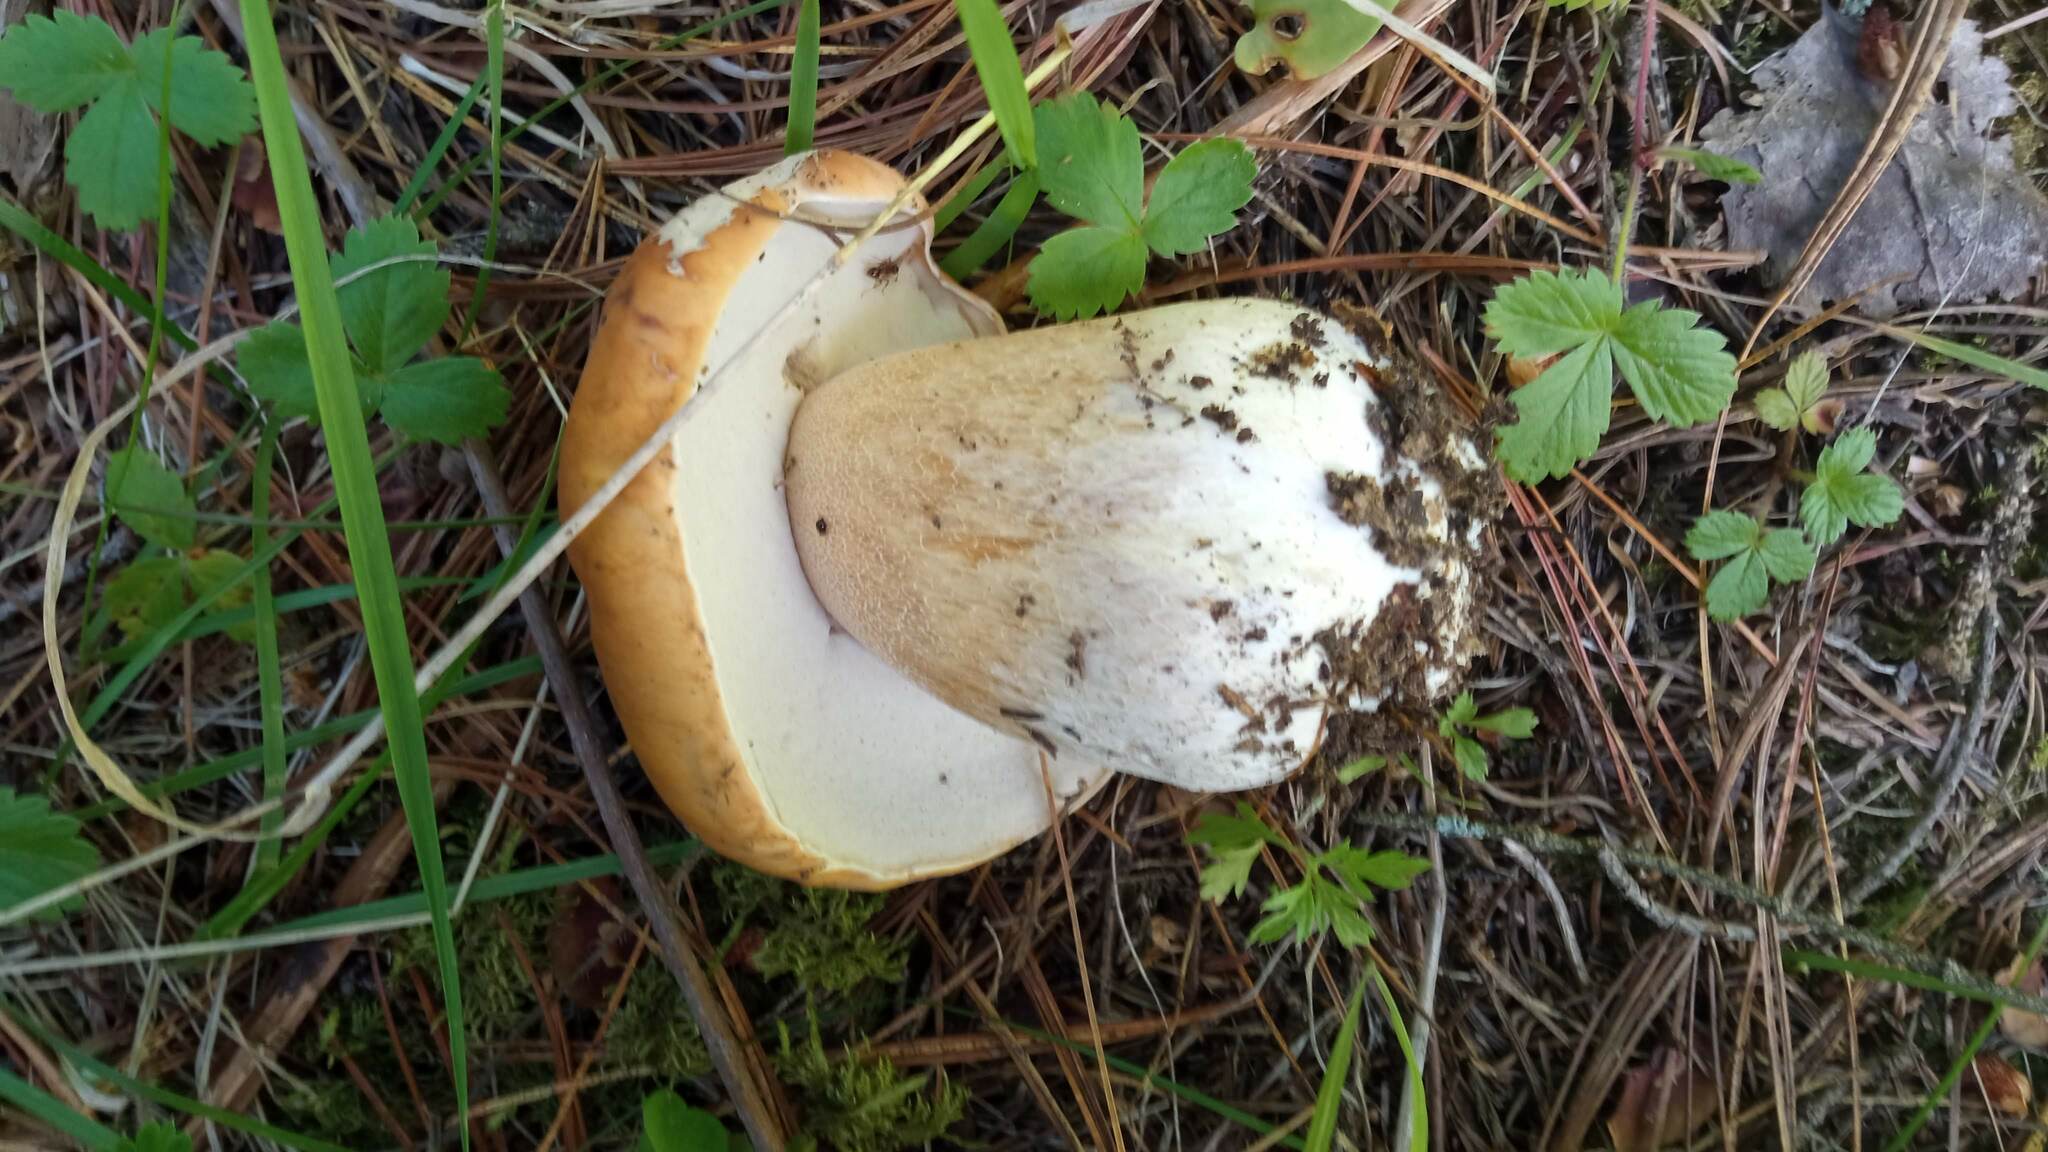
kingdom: Fungi
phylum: Basidiomycota
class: Agaricomycetes
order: Boletales
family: Boletaceae
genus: Boletus
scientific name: Boletus edulis
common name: Cep
